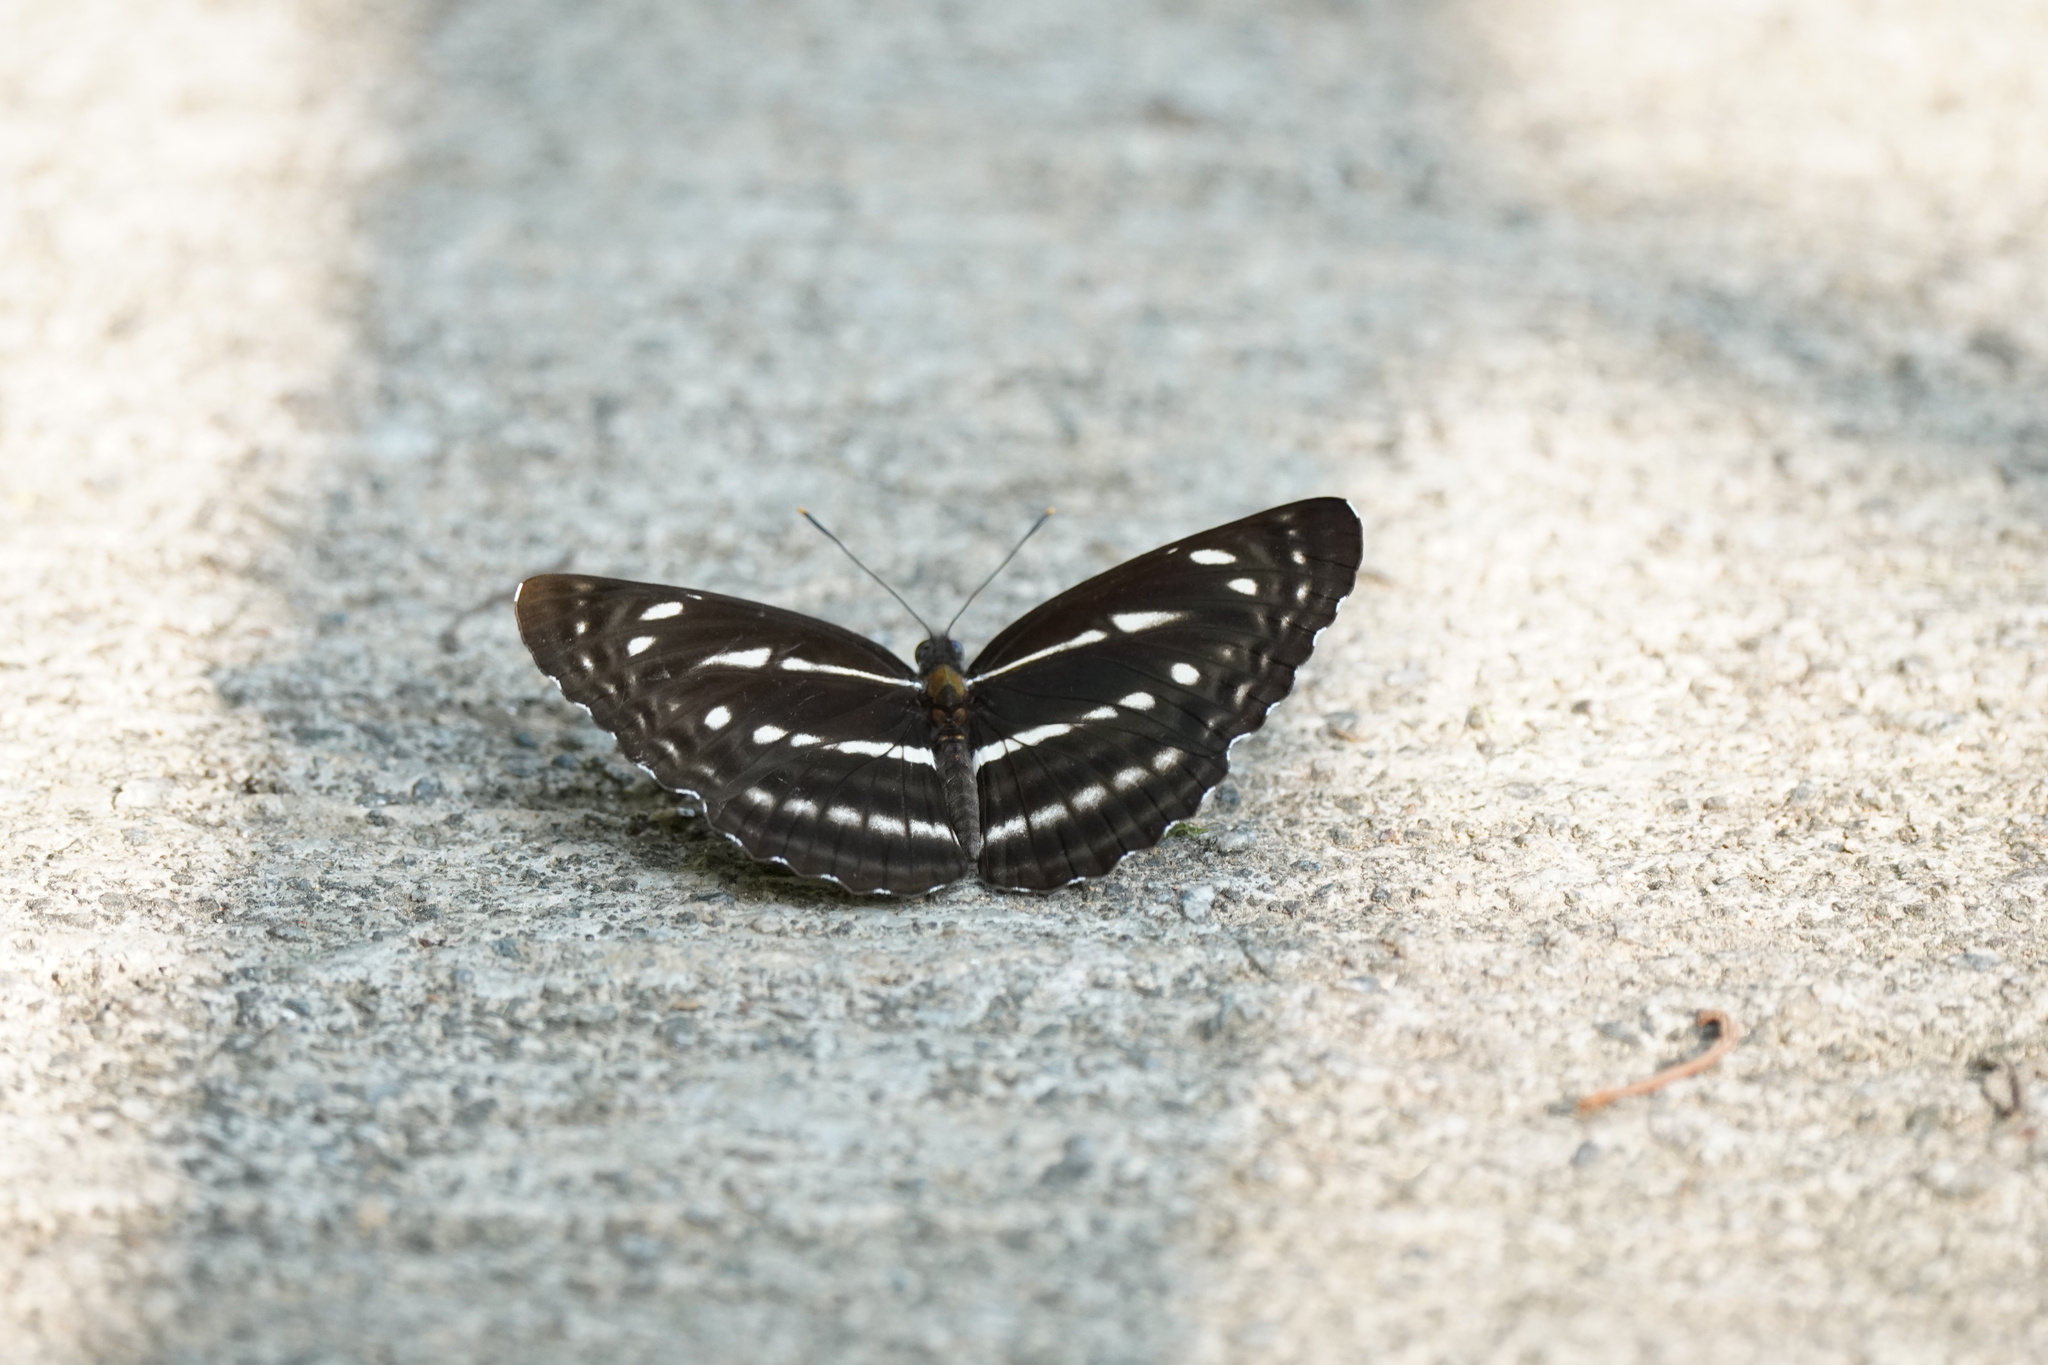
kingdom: Animalia
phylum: Arthropoda
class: Insecta
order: Lepidoptera
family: Nymphalidae
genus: Neptis
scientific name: Neptis nata
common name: Sullied brown sailer
